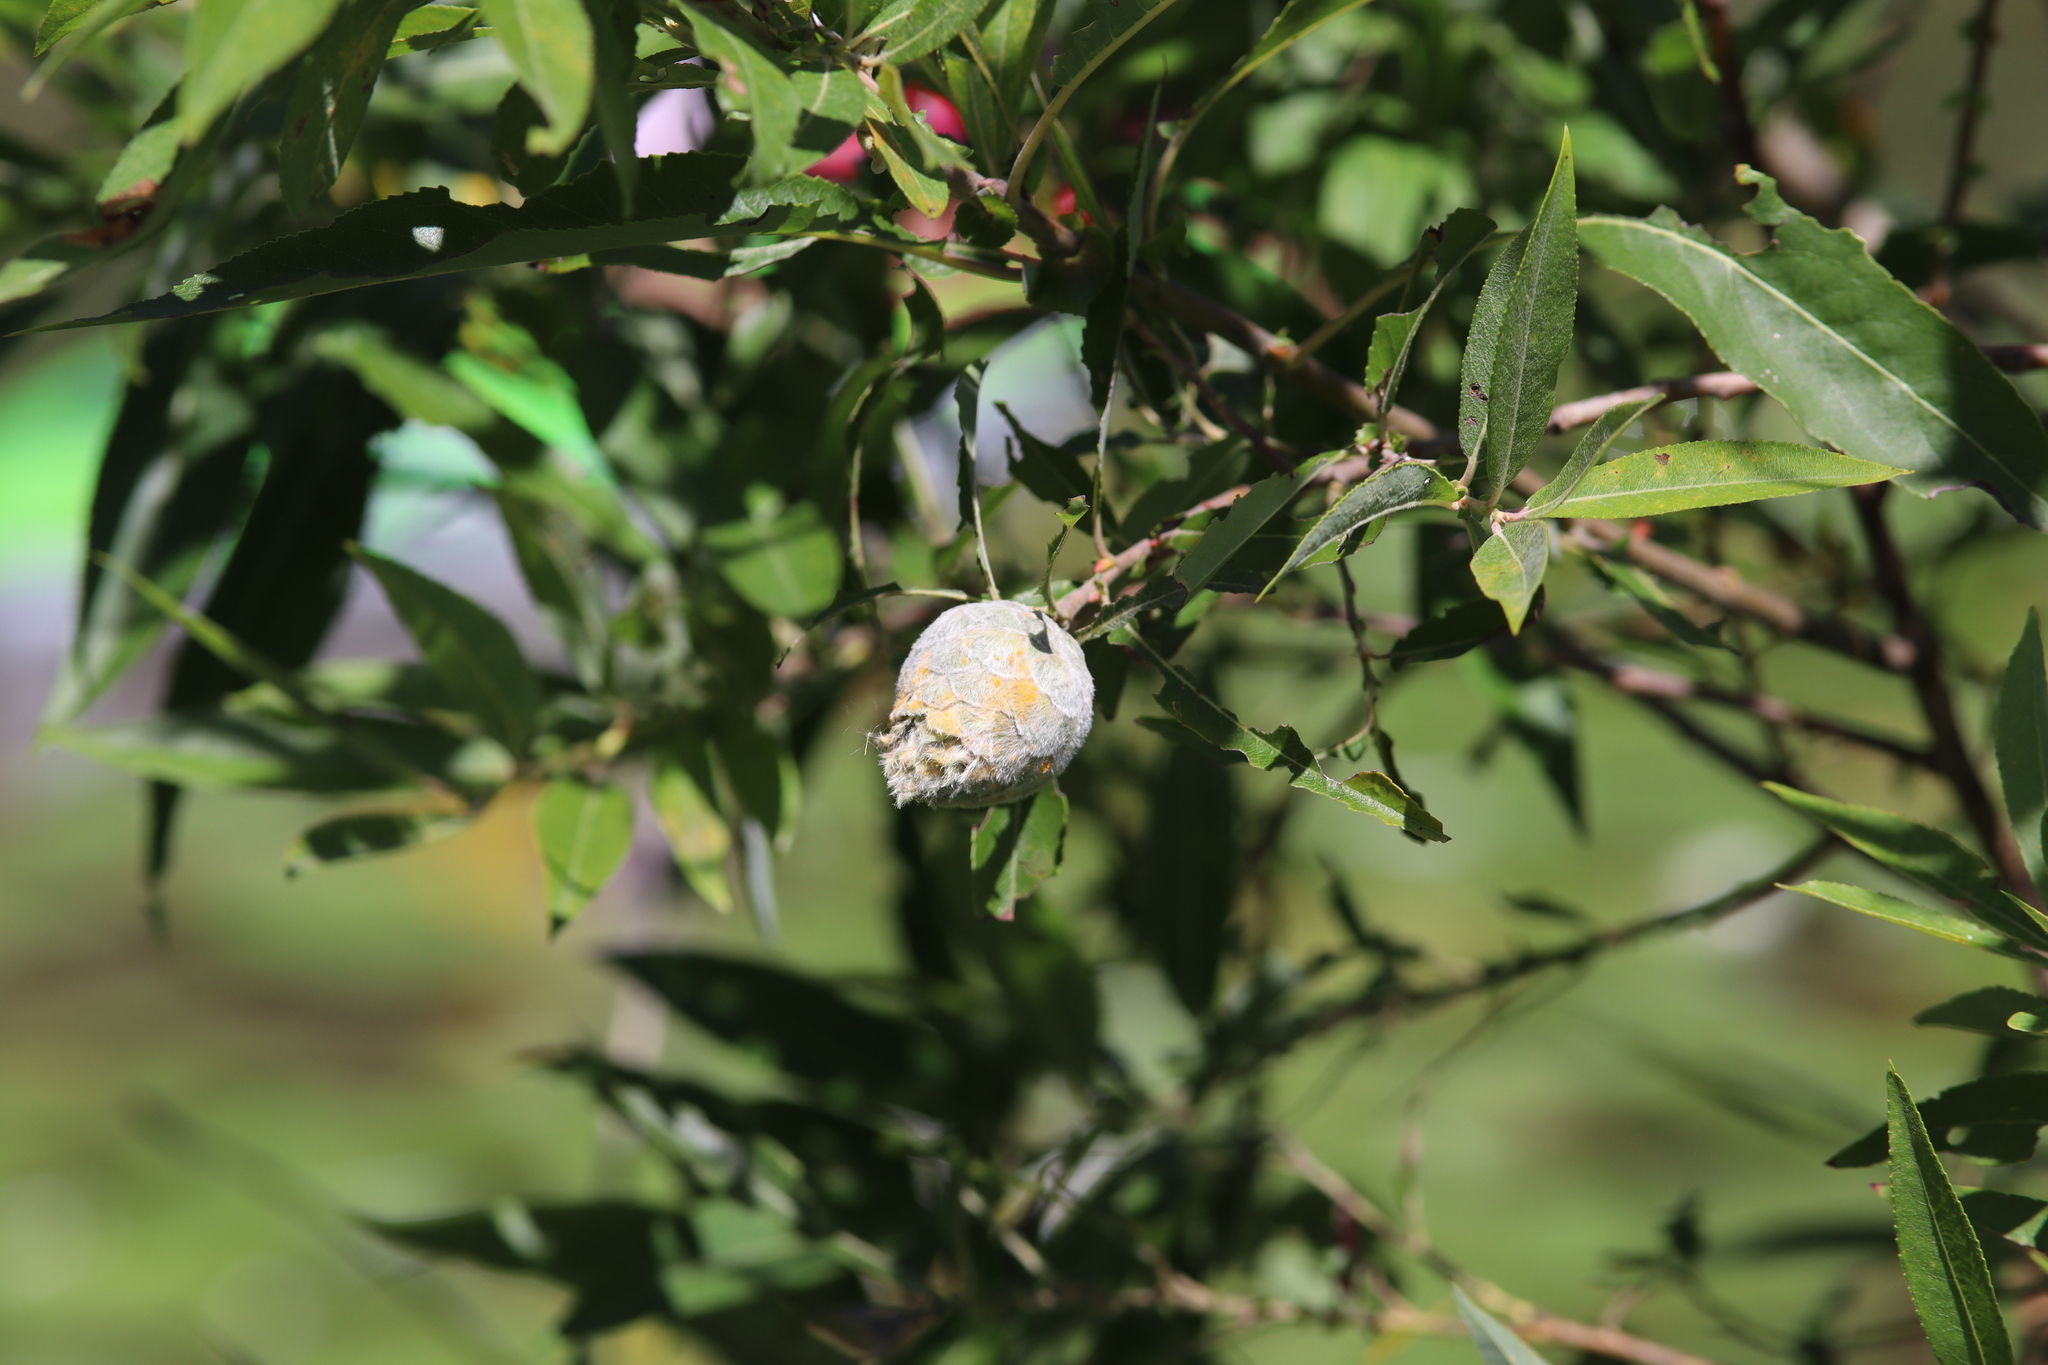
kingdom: Animalia
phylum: Arthropoda
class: Insecta
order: Diptera
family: Cecidomyiidae
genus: Rabdophaga
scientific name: Rabdophaga strobiloides
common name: Willow pinecone gall midge
